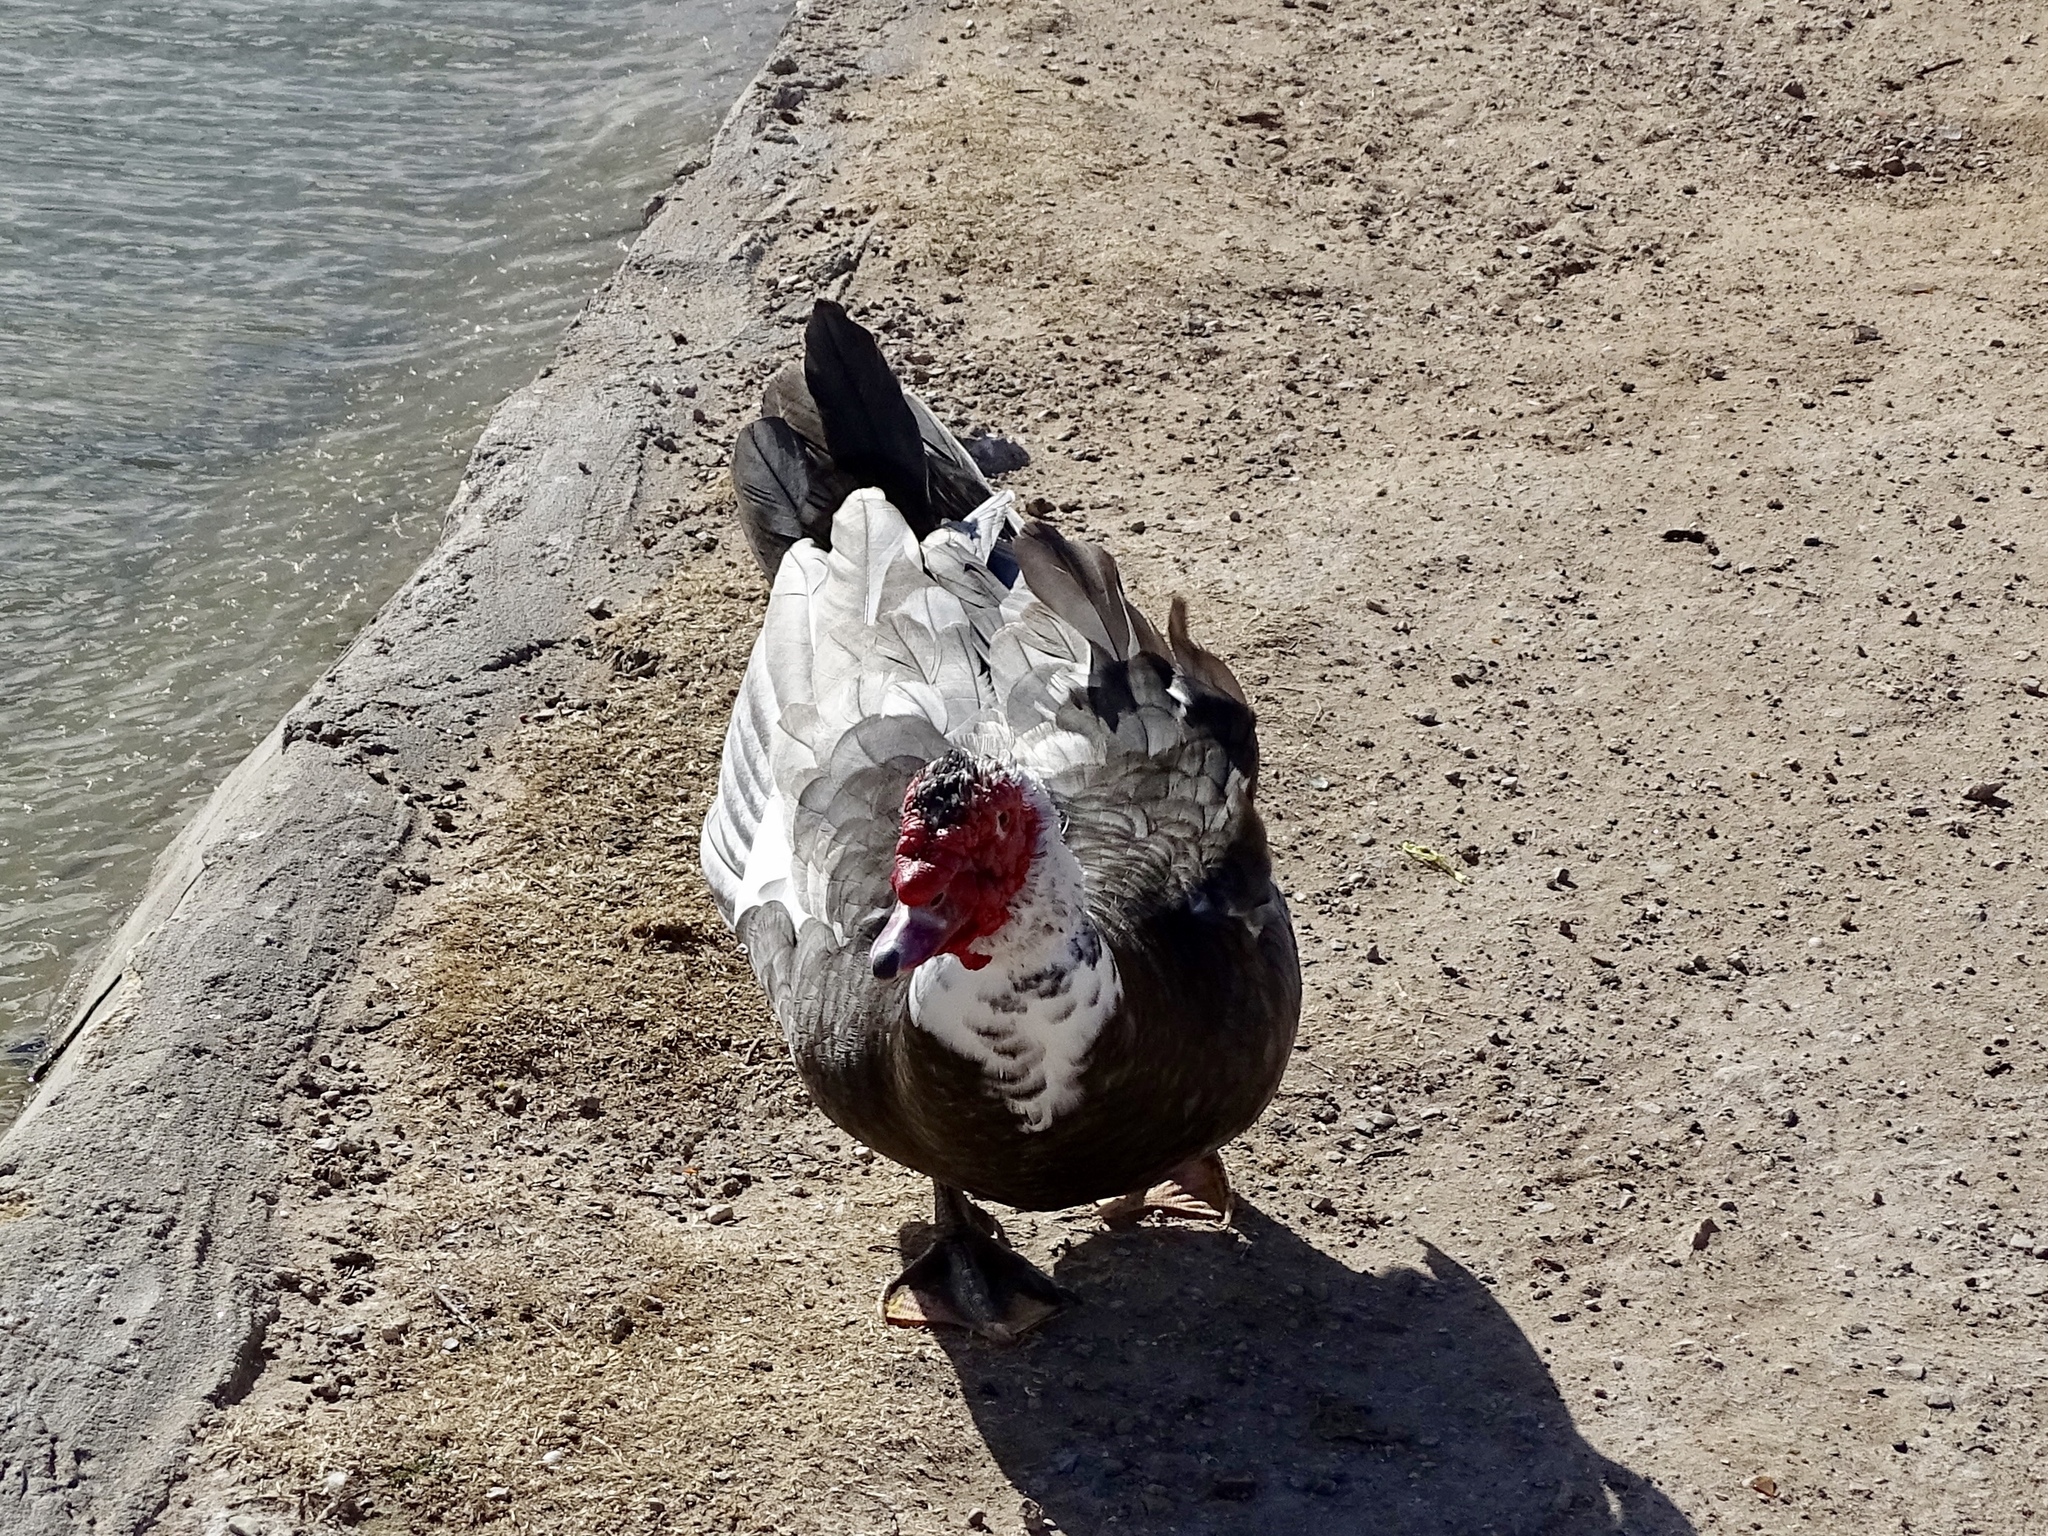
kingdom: Animalia
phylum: Chordata
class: Aves
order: Anseriformes
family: Anatidae
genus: Cairina
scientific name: Cairina moschata
